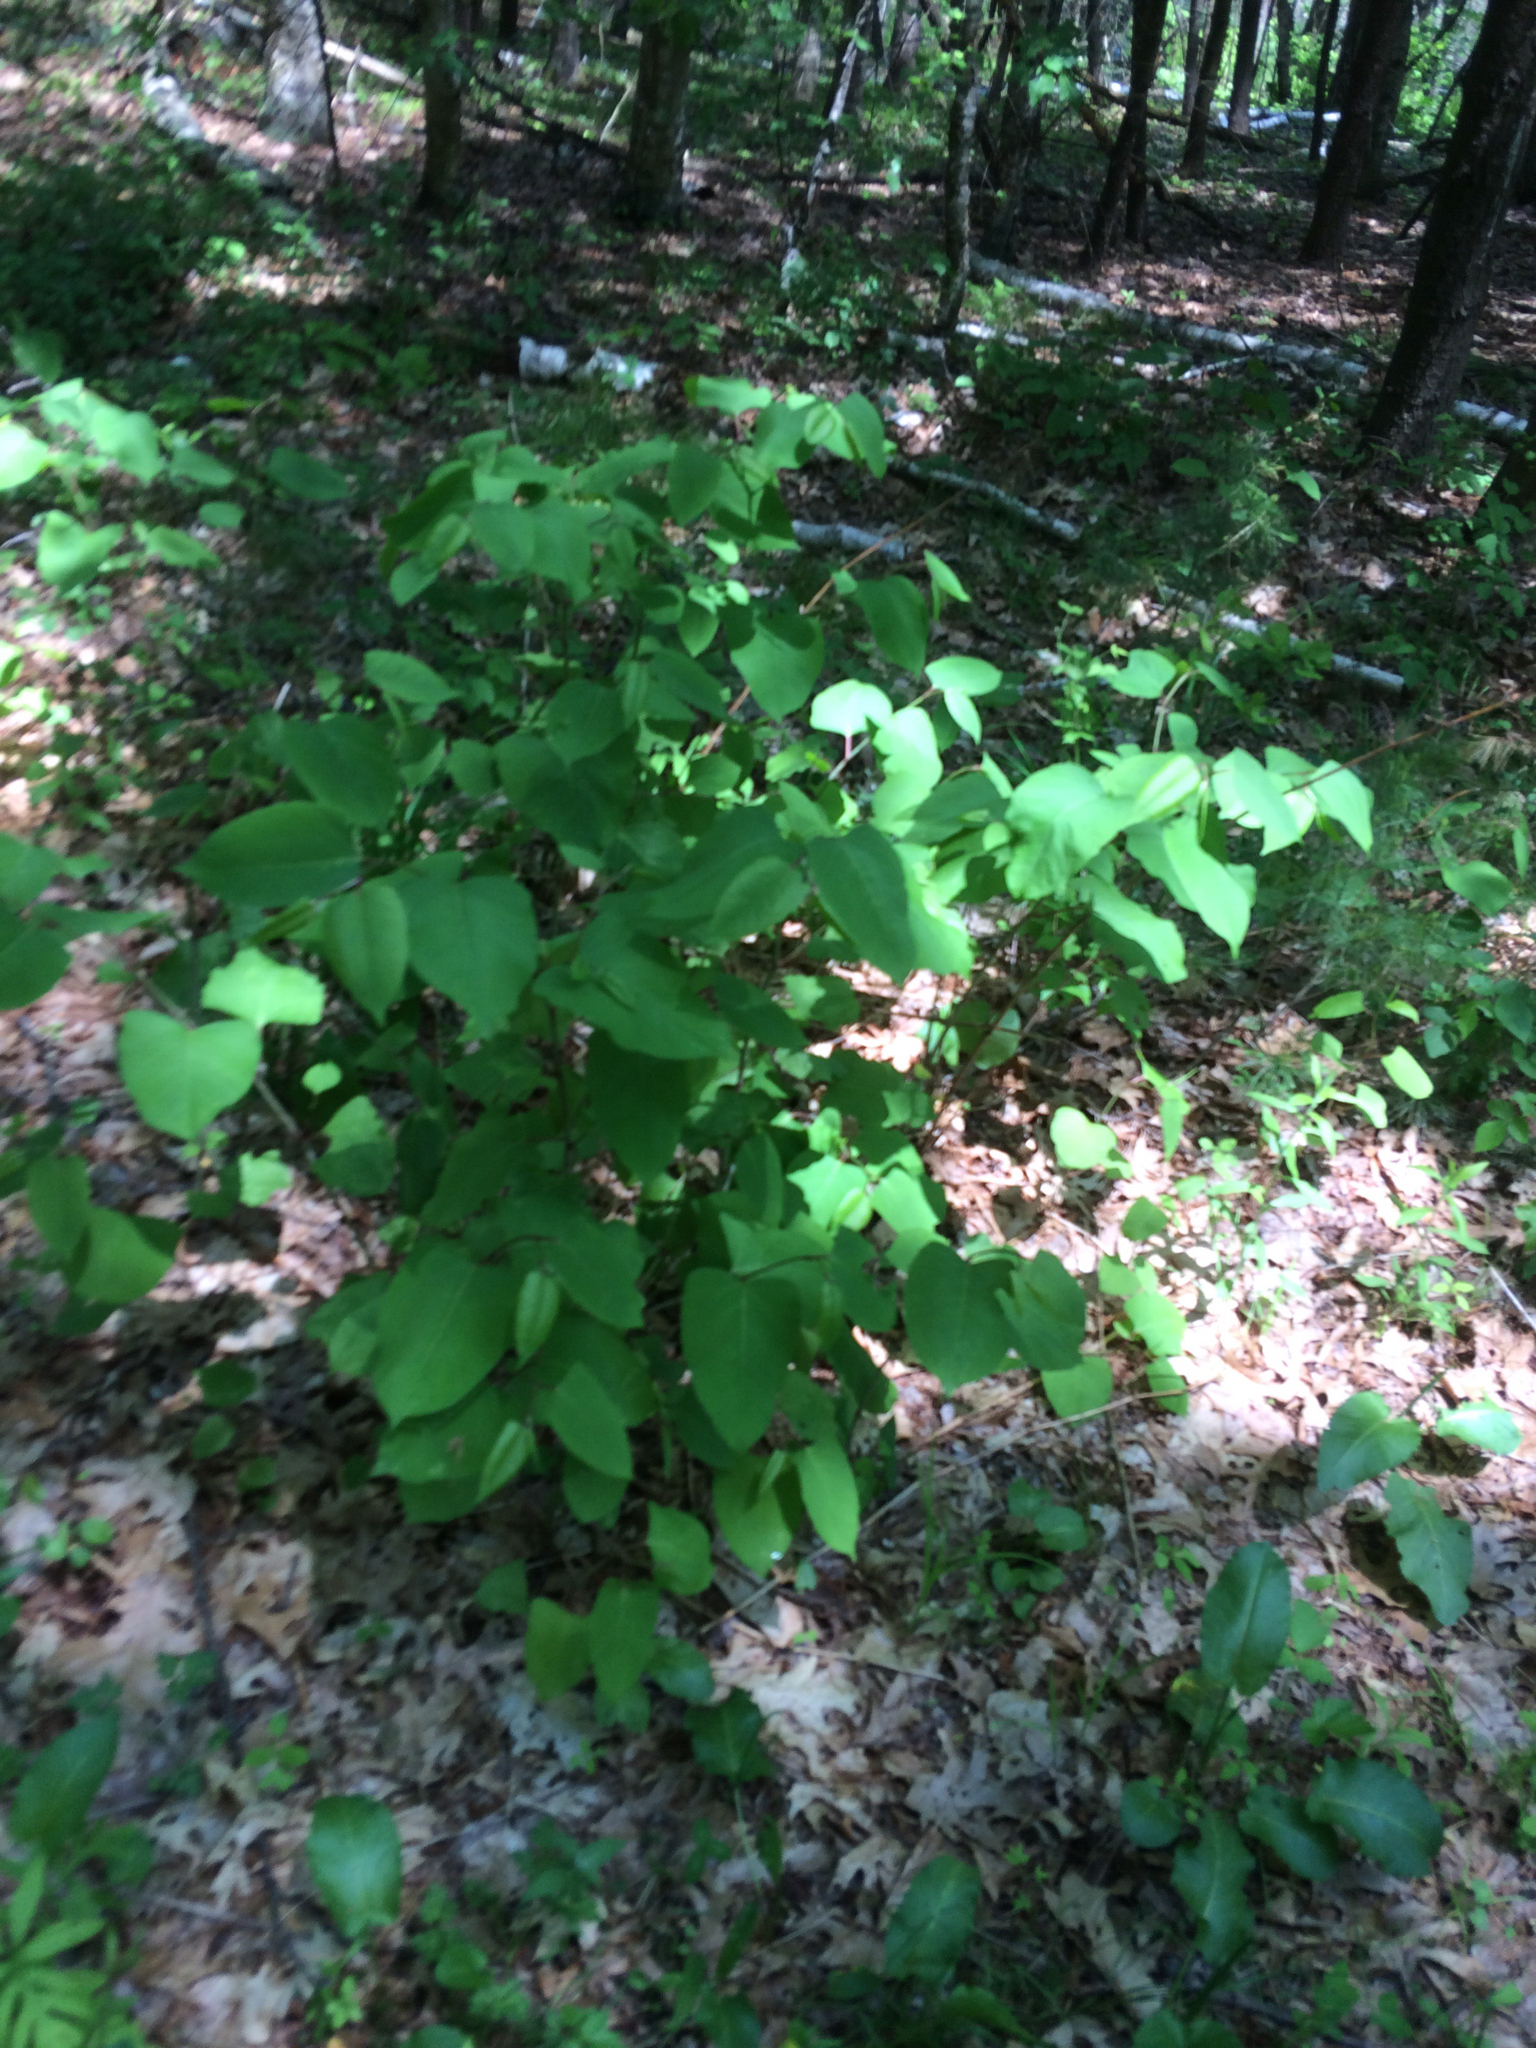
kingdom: Plantae
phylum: Tracheophyta
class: Magnoliopsida
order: Caryophyllales
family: Polygonaceae
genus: Reynoutria
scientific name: Reynoutria japonica
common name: Japanese knotweed
